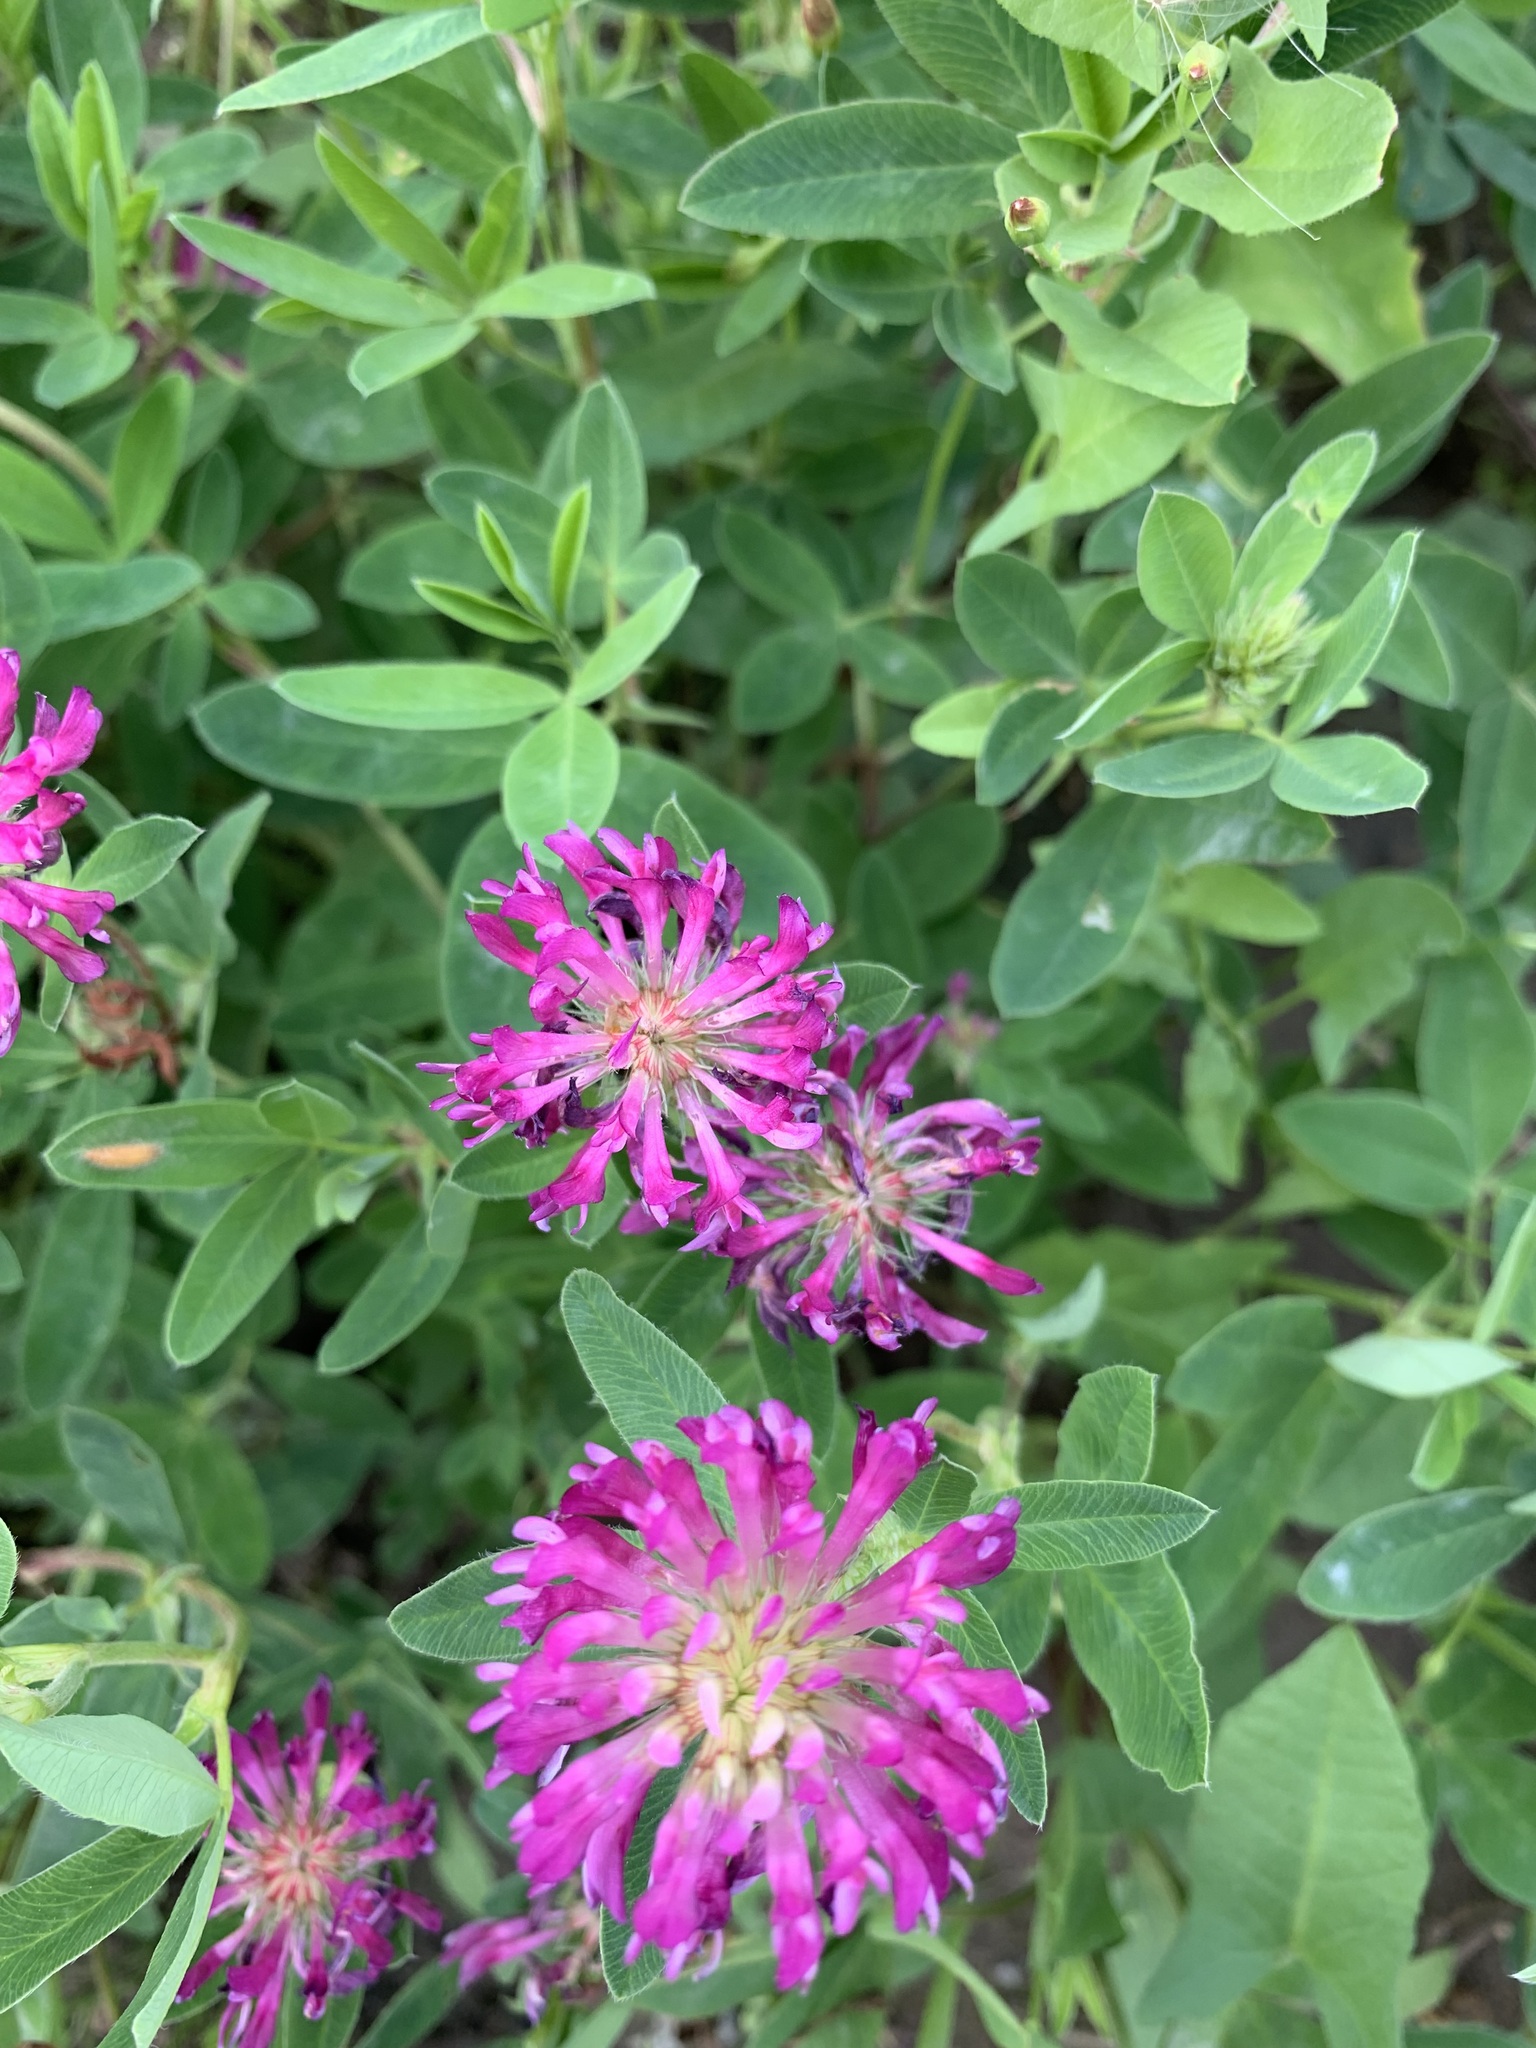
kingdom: Plantae
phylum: Tracheophyta
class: Magnoliopsida
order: Fabales
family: Fabaceae
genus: Trifolium
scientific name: Trifolium medium
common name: Zigzag clover
